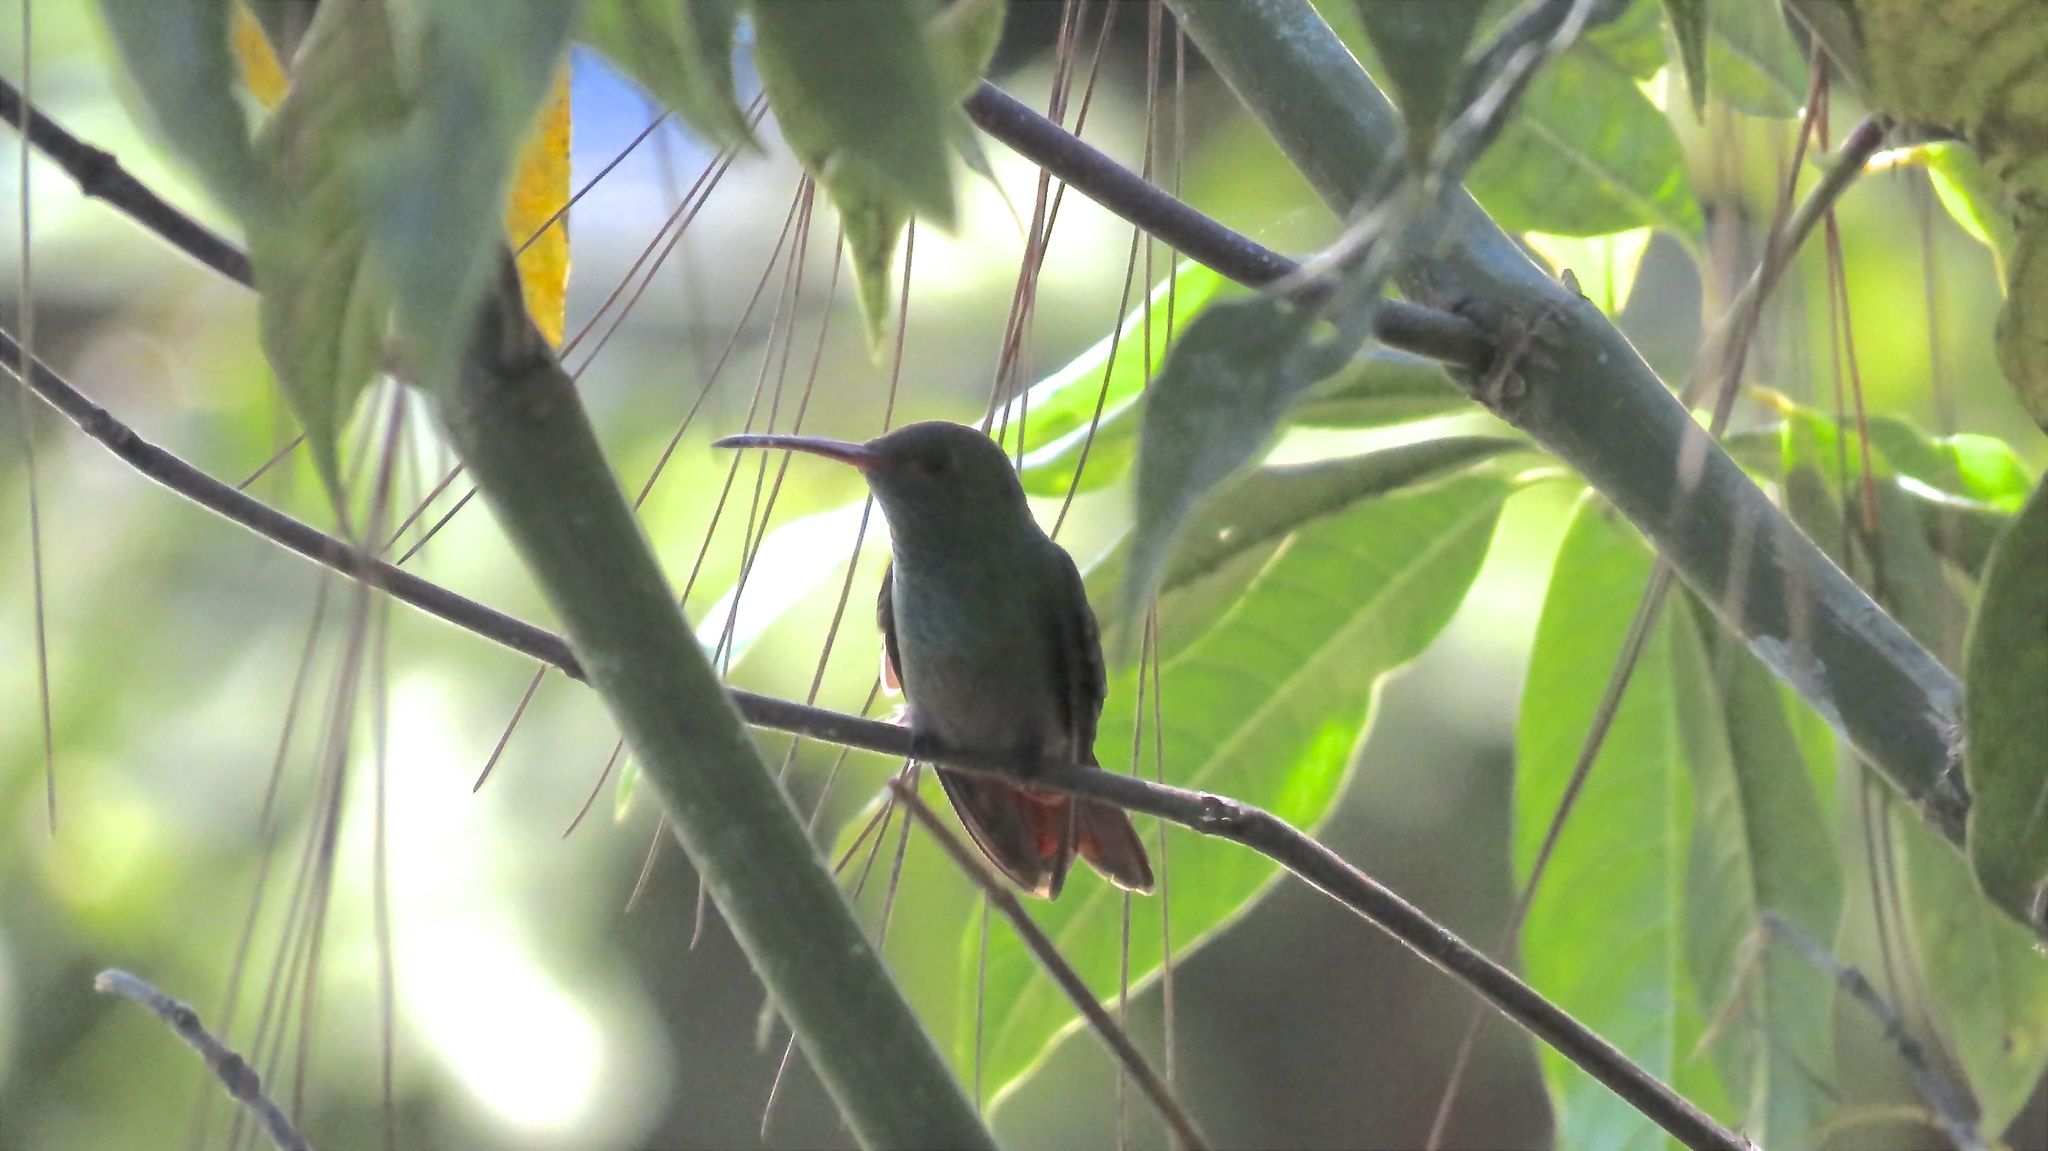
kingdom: Animalia
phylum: Chordata
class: Aves
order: Apodiformes
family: Trochilidae
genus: Amazilia
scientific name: Amazilia tzacatl
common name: Rufous-tailed hummingbird
